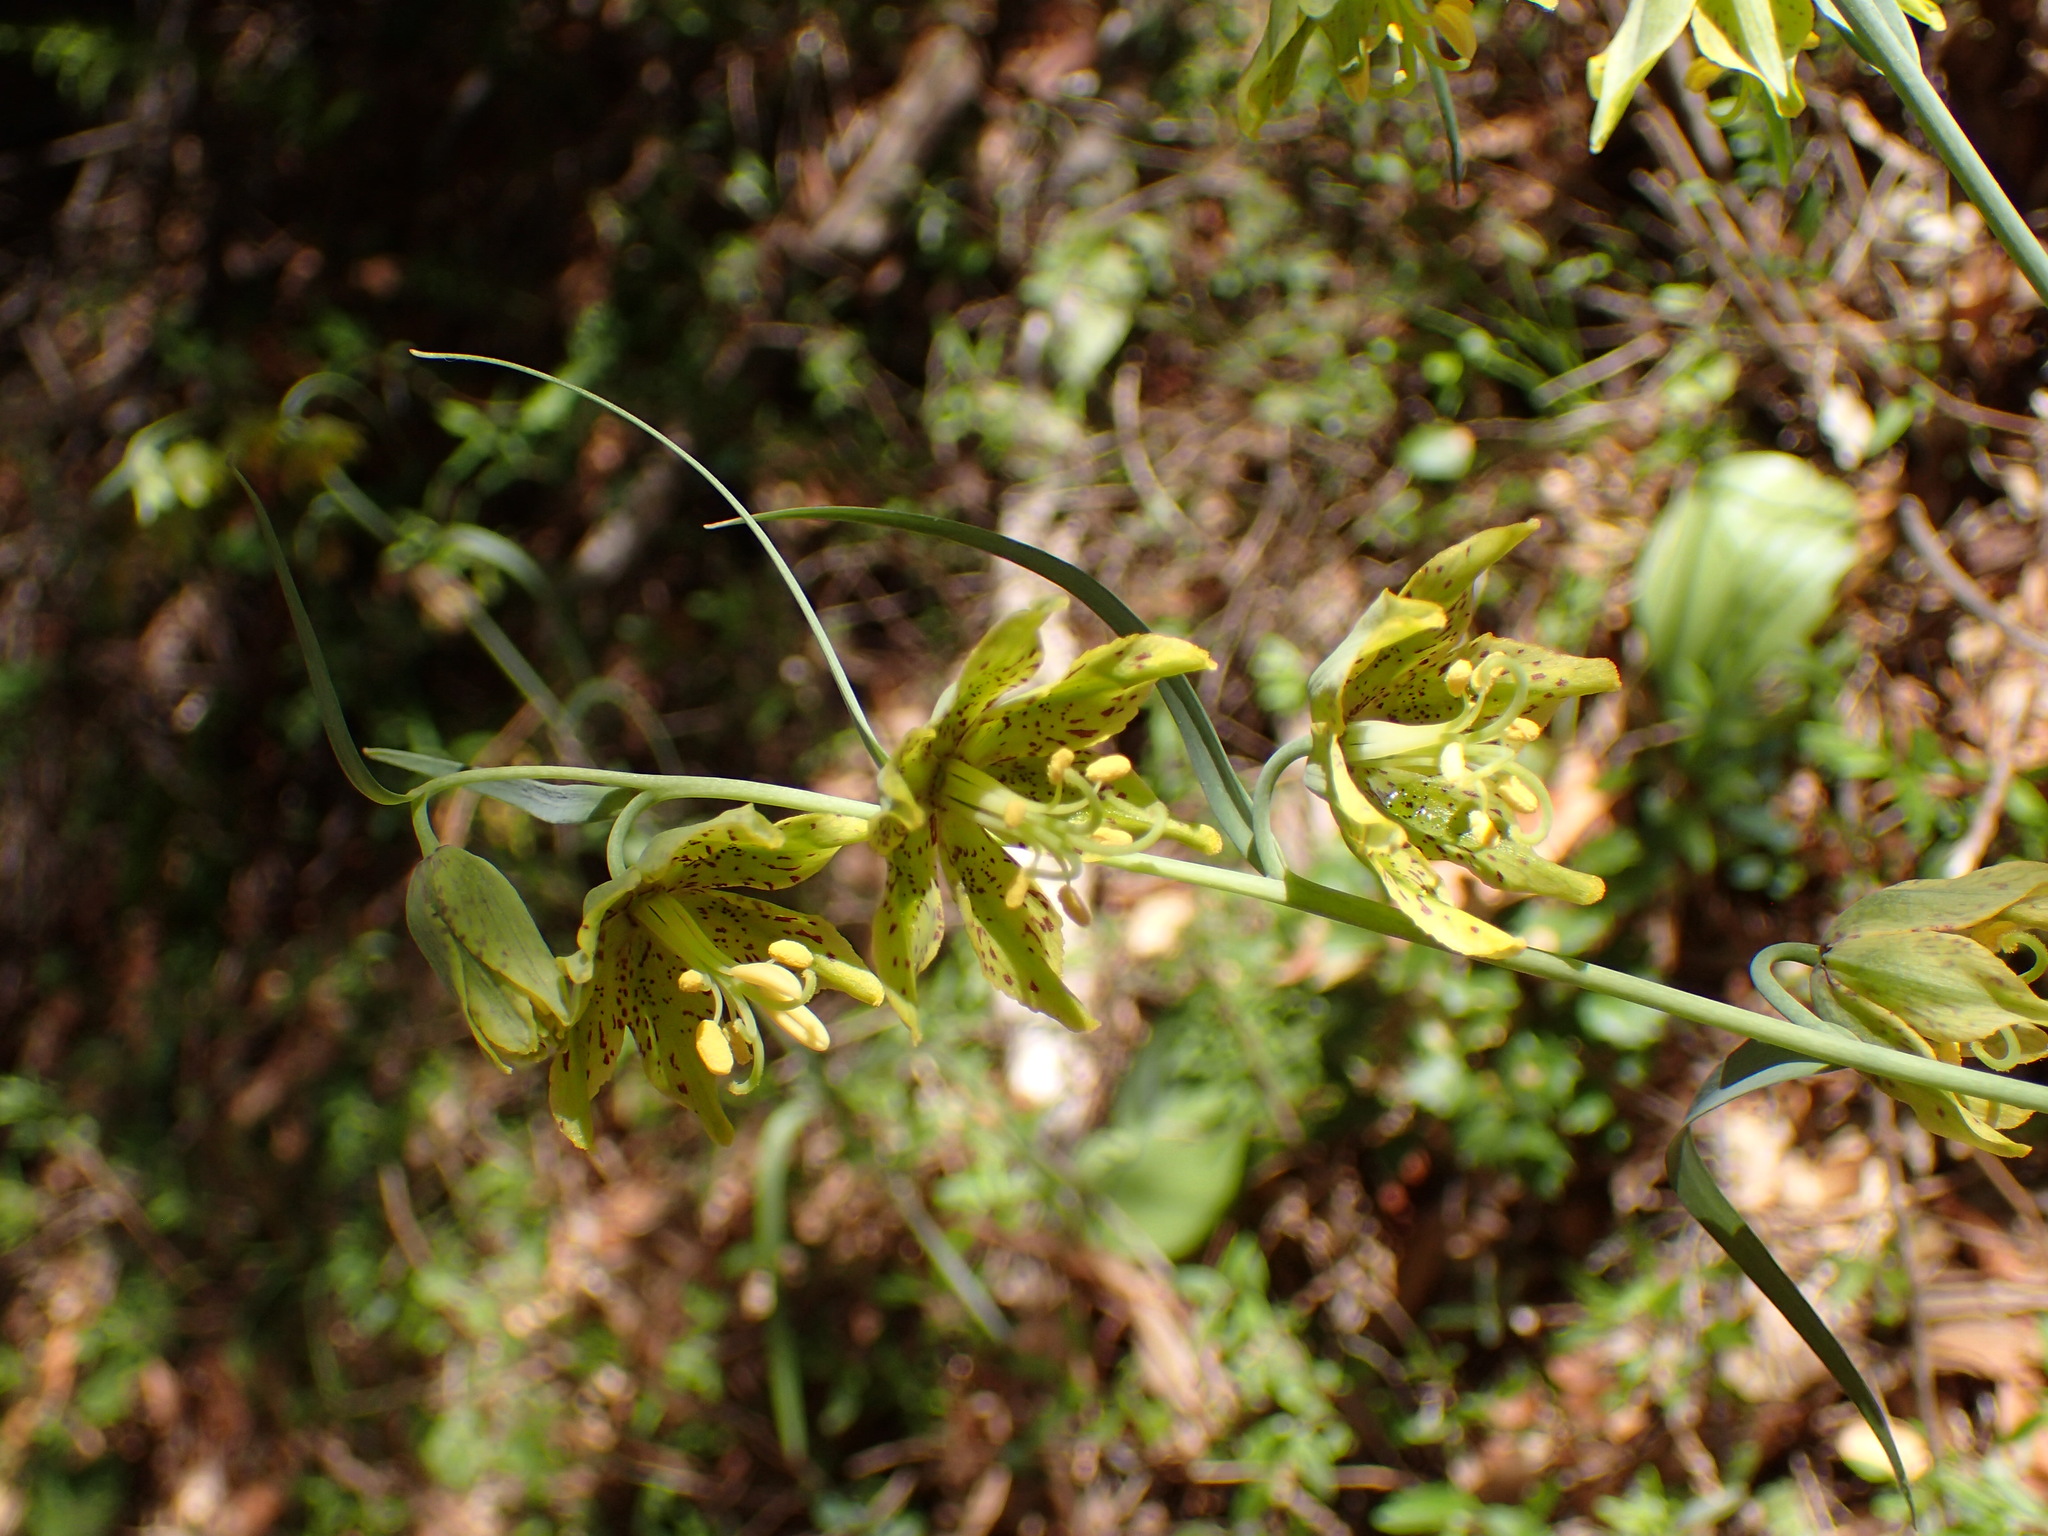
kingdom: Plantae
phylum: Tracheophyta
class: Liliopsida
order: Liliales
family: Liliaceae
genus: Fritillaria
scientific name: Fritillaria ojaiensis
